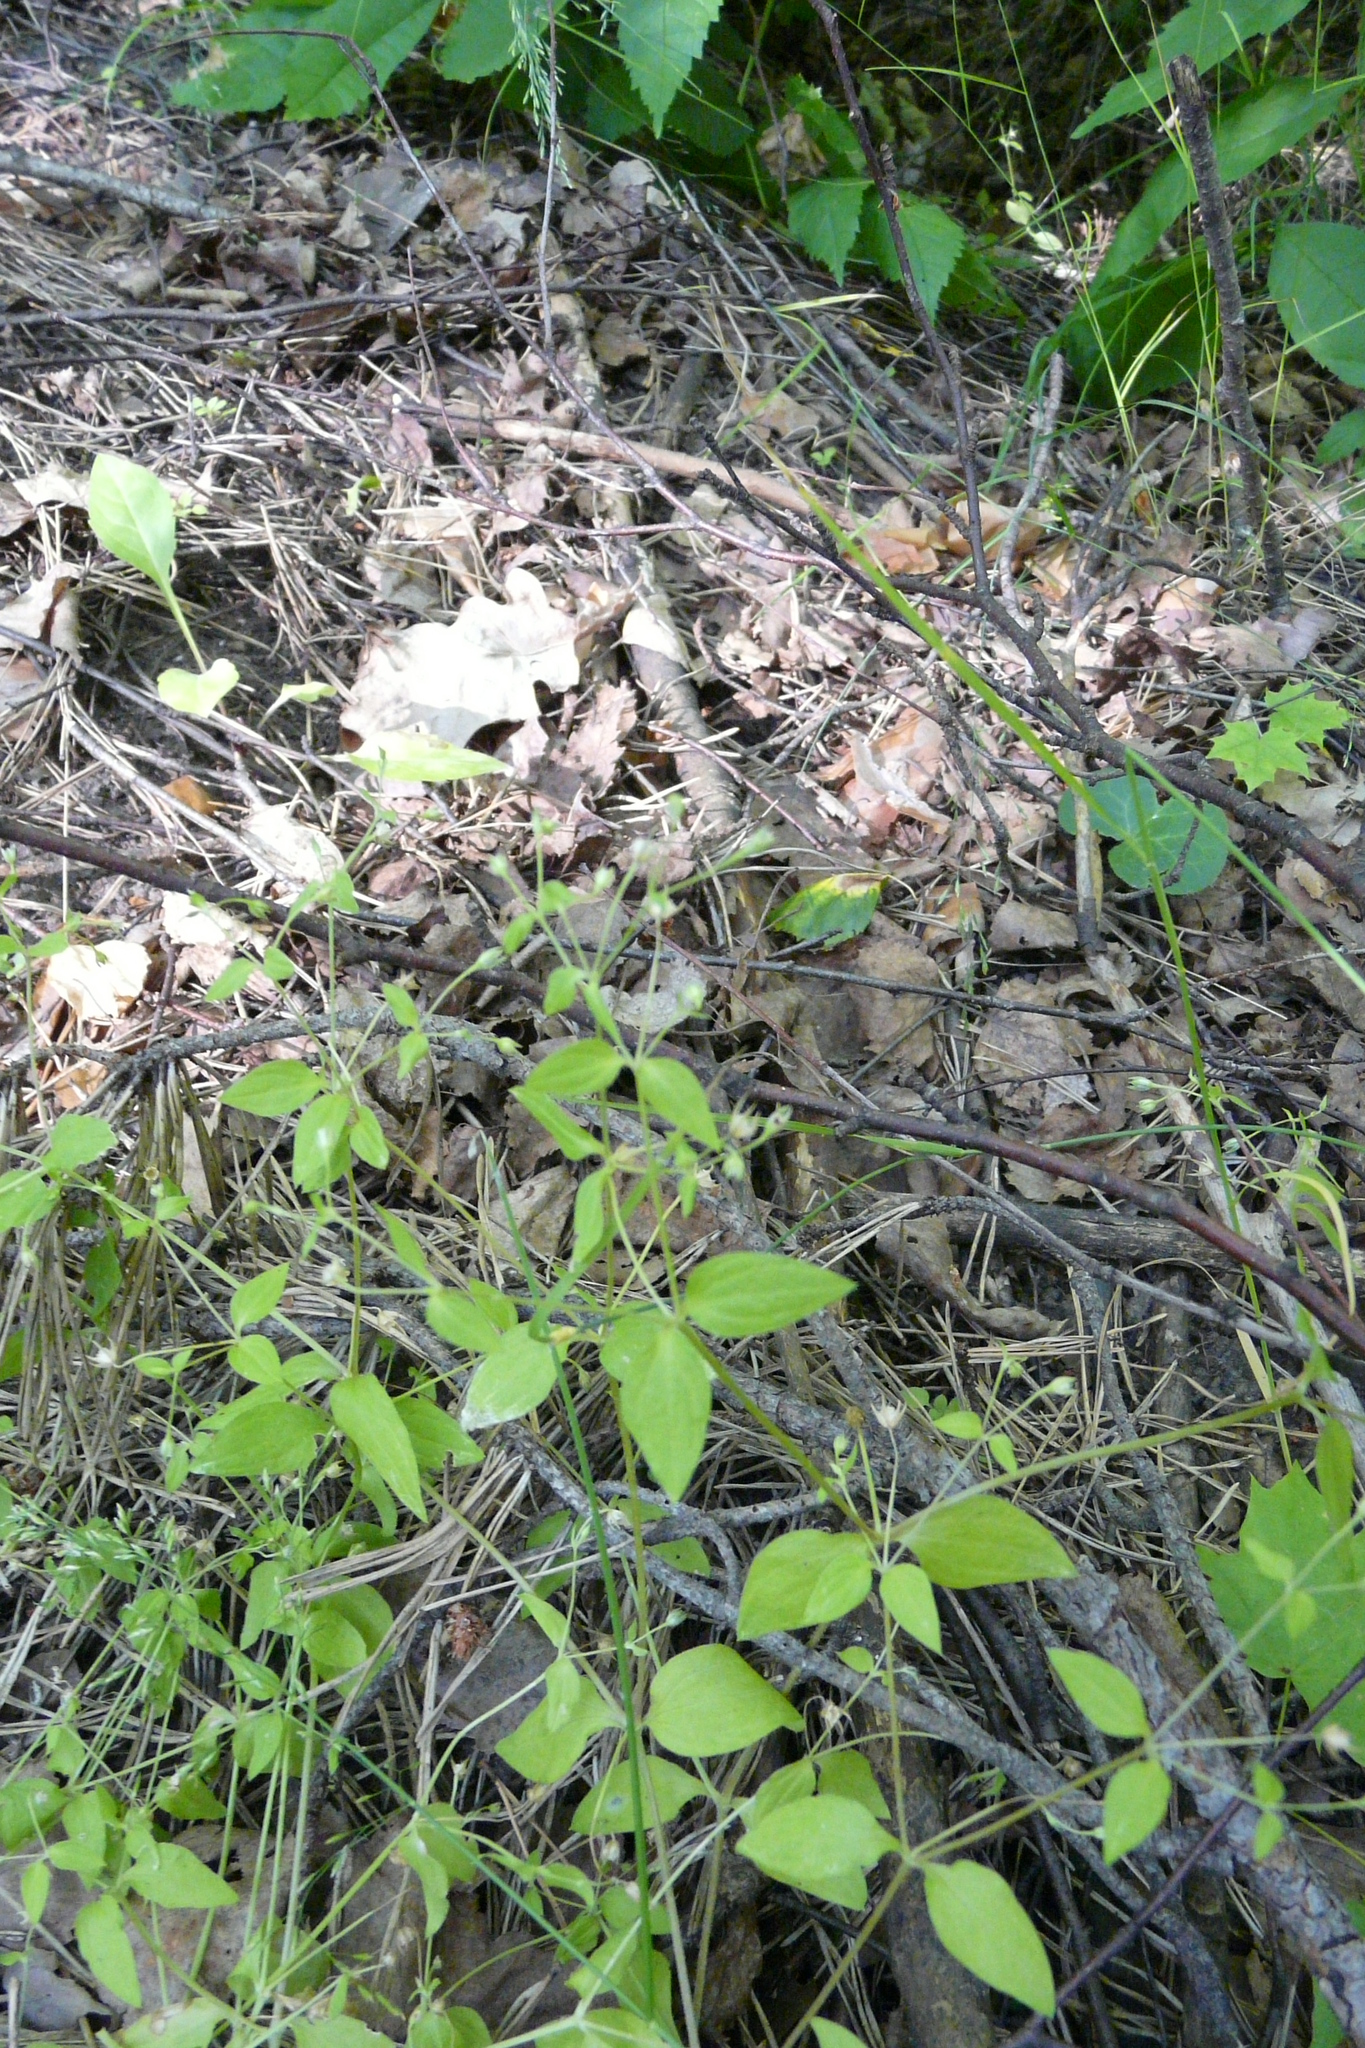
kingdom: Plantae
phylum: Tracheophyta
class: Magnoliopsida
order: Caryophyllales
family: Caryophyllaceae
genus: Moehringia
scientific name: Moehringia trinervia
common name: Three-nerved sandwort
